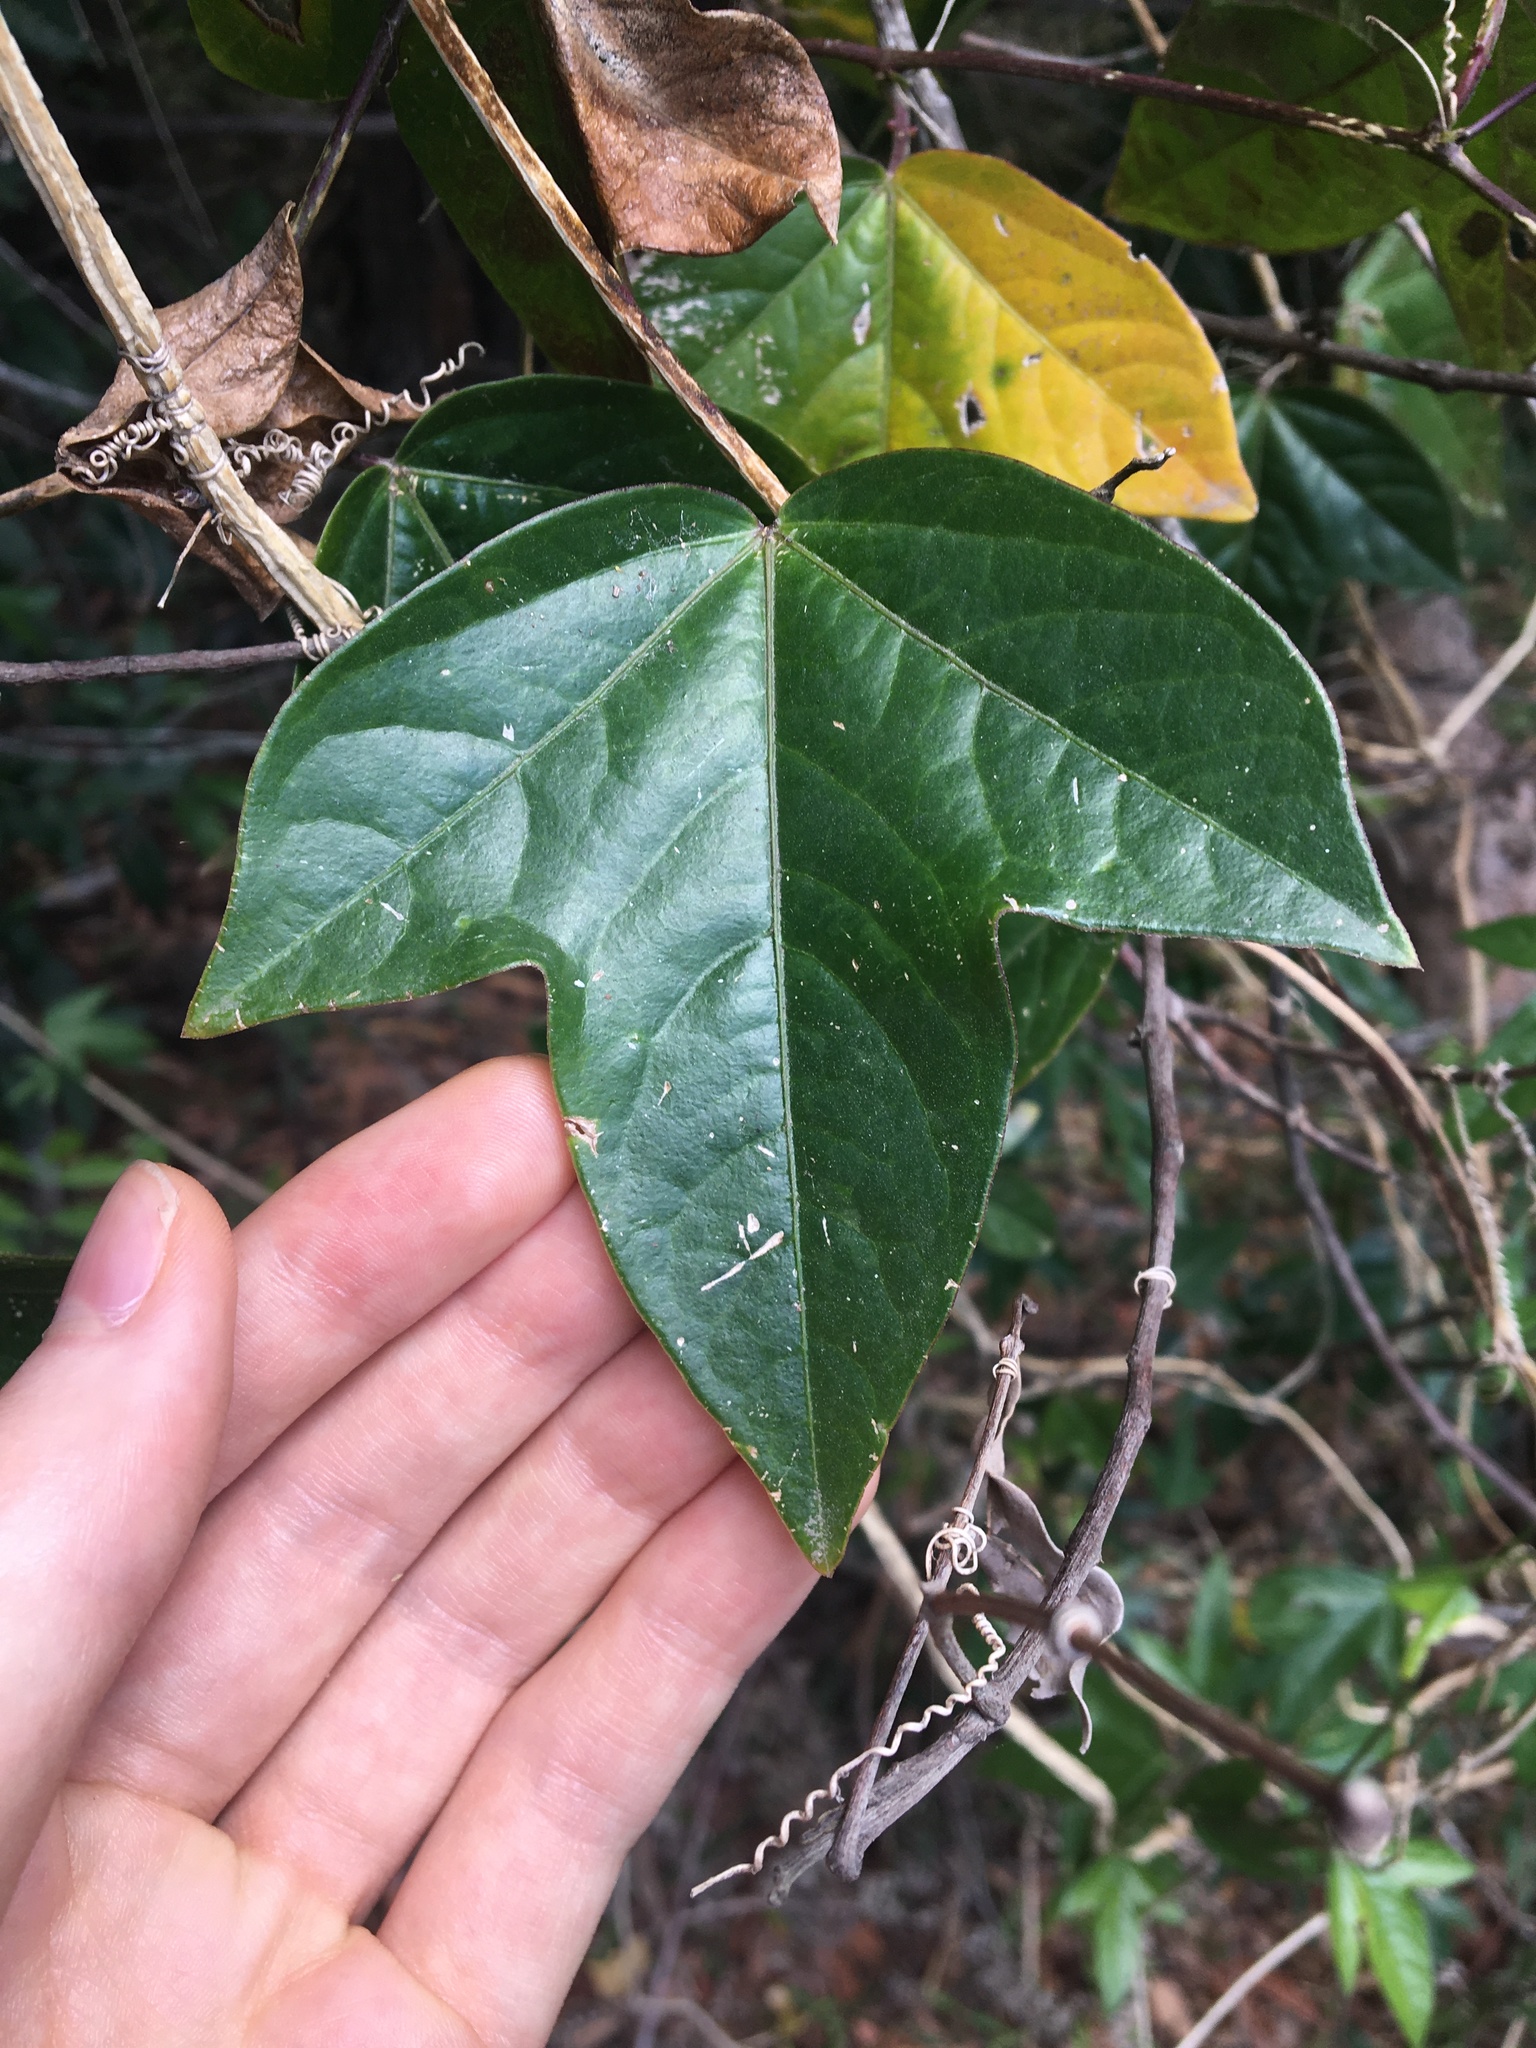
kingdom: Plantae
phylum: Tracheophyta
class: Magnoliopsida
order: Malpighiales
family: Passifloraceae
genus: Passiflora
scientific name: Passiflora suberosa
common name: Wild passionfruit
